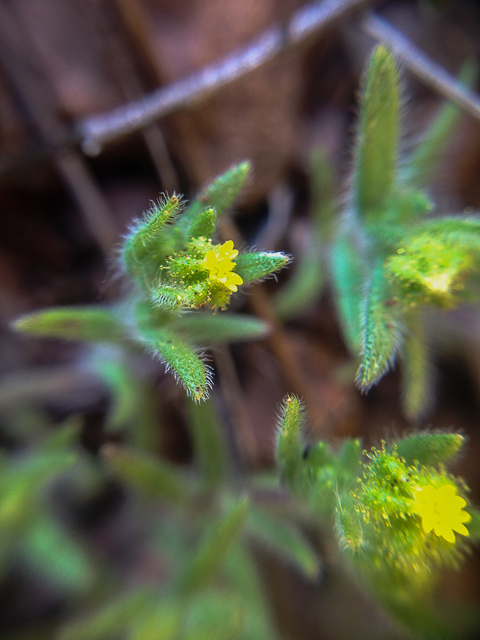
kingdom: Plantae
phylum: Tracheophyta
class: Magnoliopsida
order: Asterales
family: Asteraceae
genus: Madia
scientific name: Madia exigua
